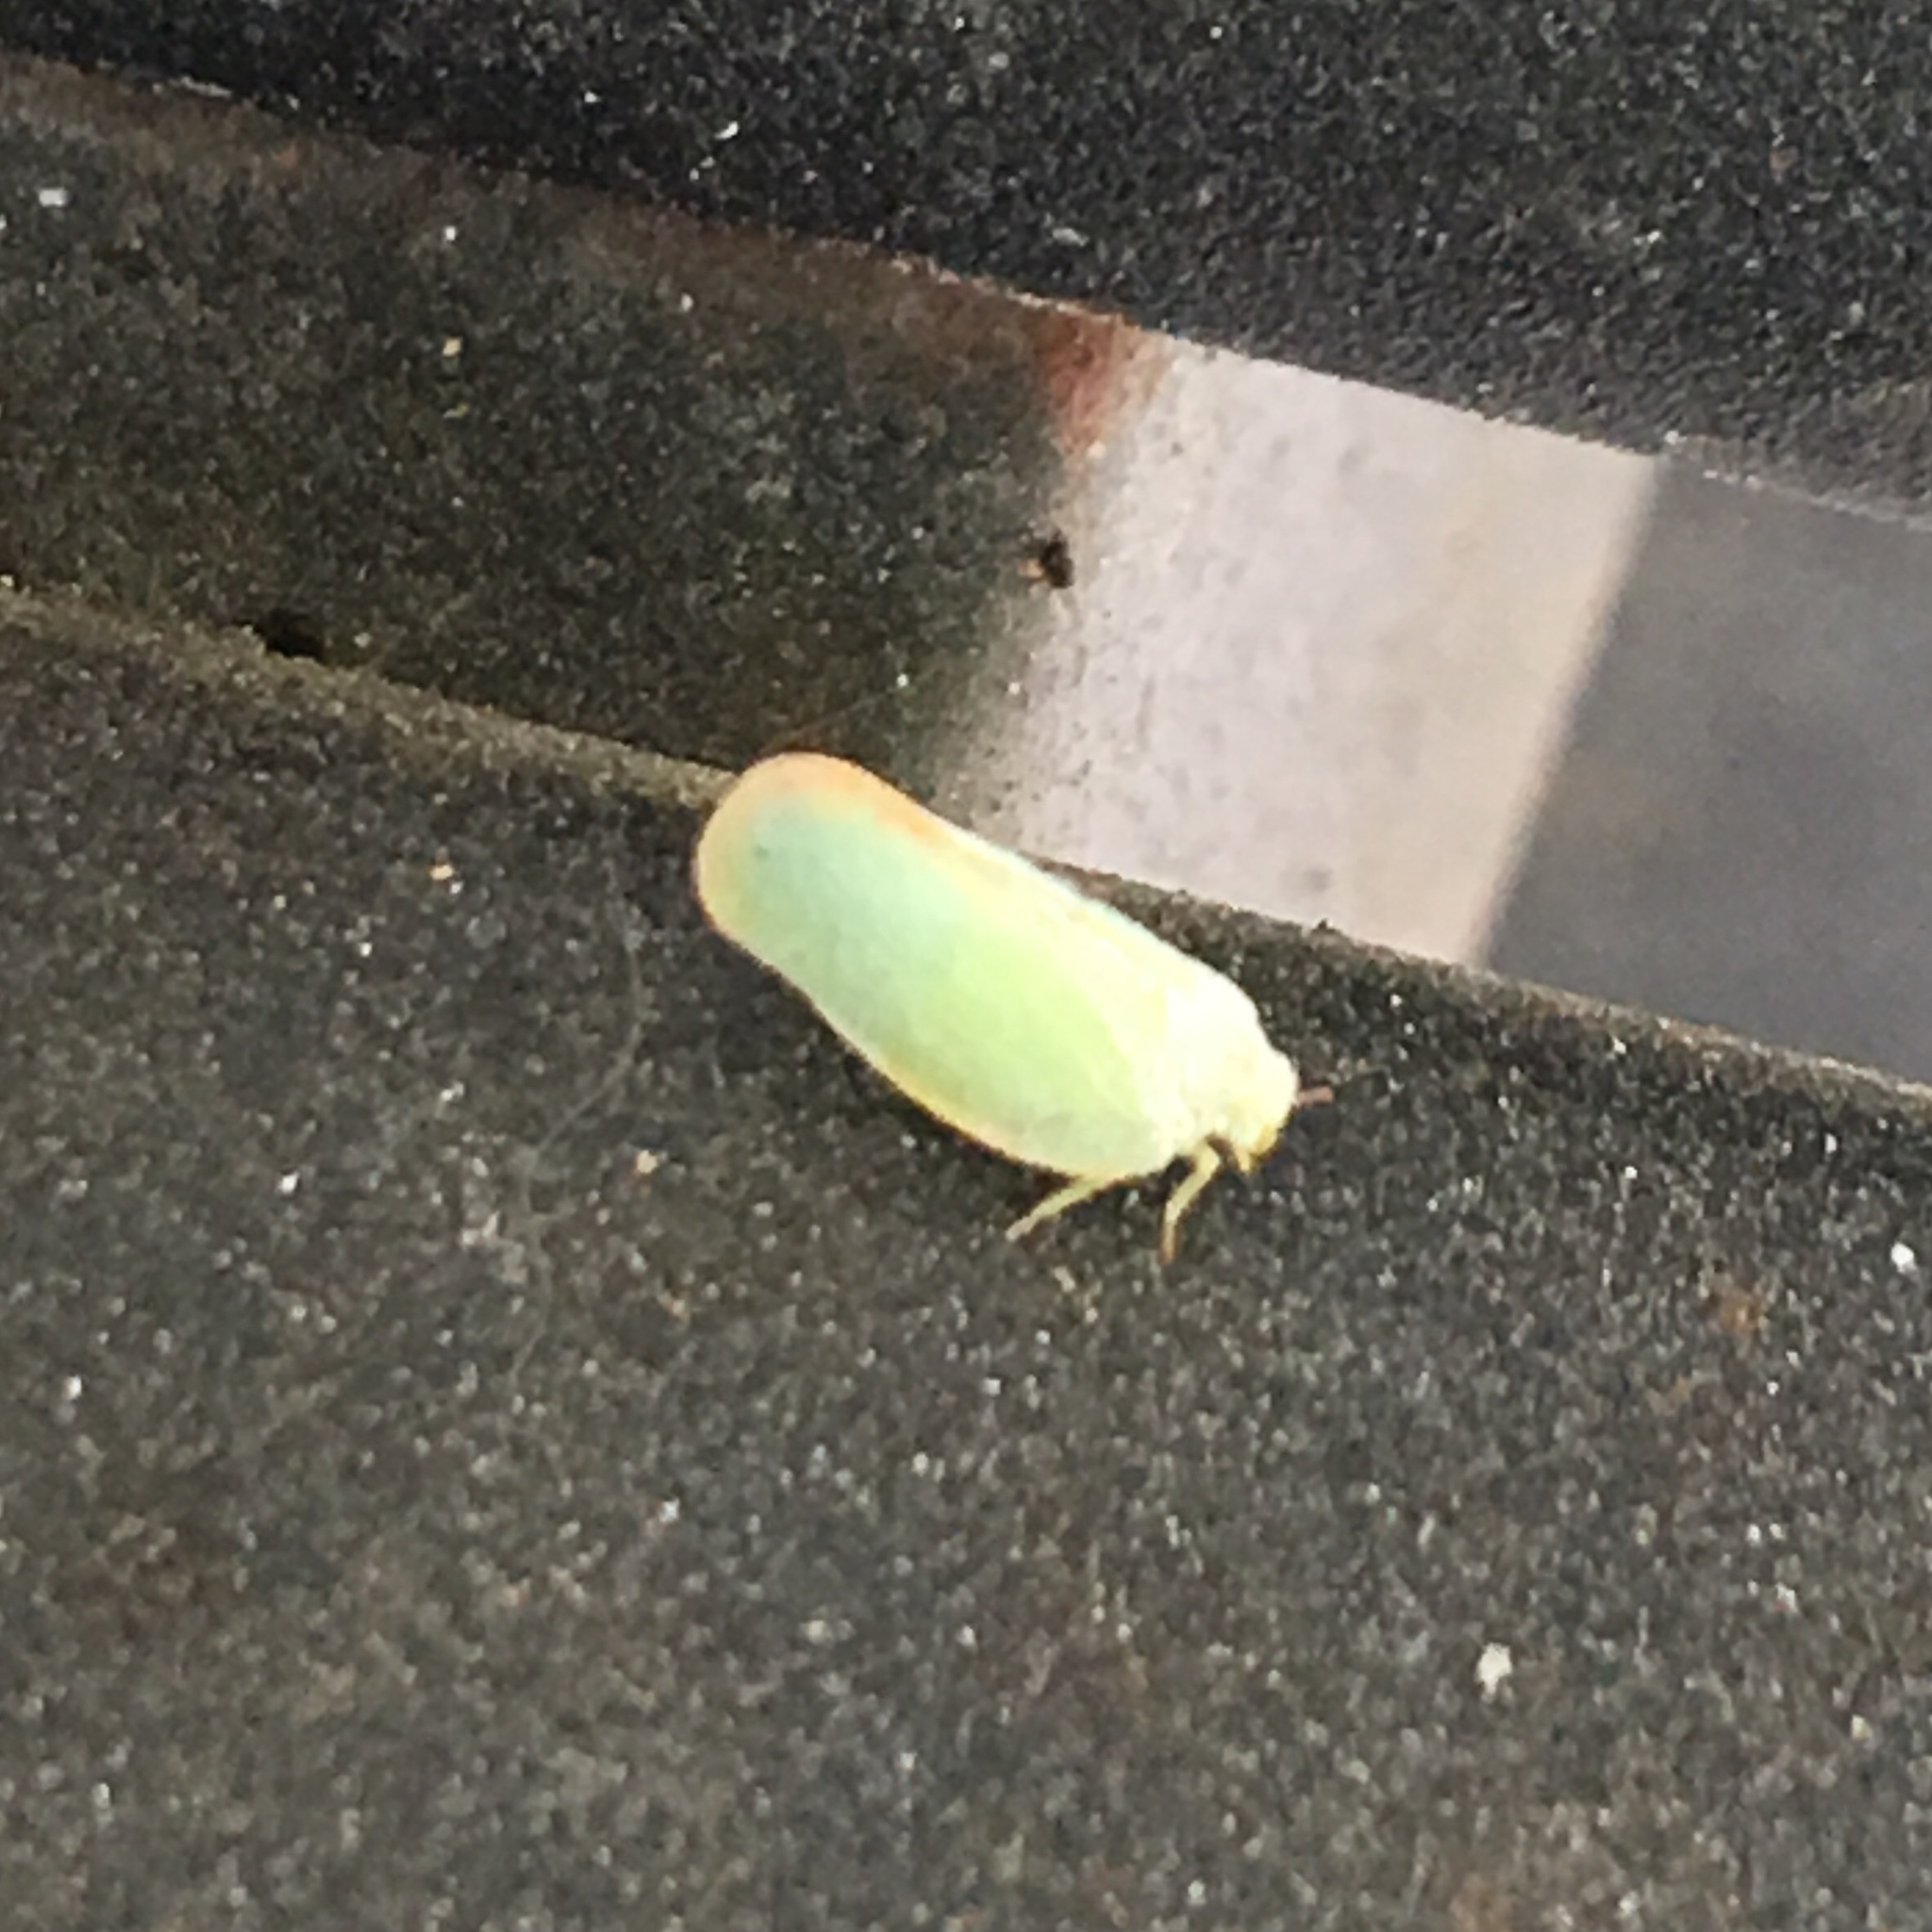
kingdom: Animalia
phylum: Arthropoda
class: Insecta
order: Hemiptera
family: Flatidae
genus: Ormenoides
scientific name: Ormenoides venusta
